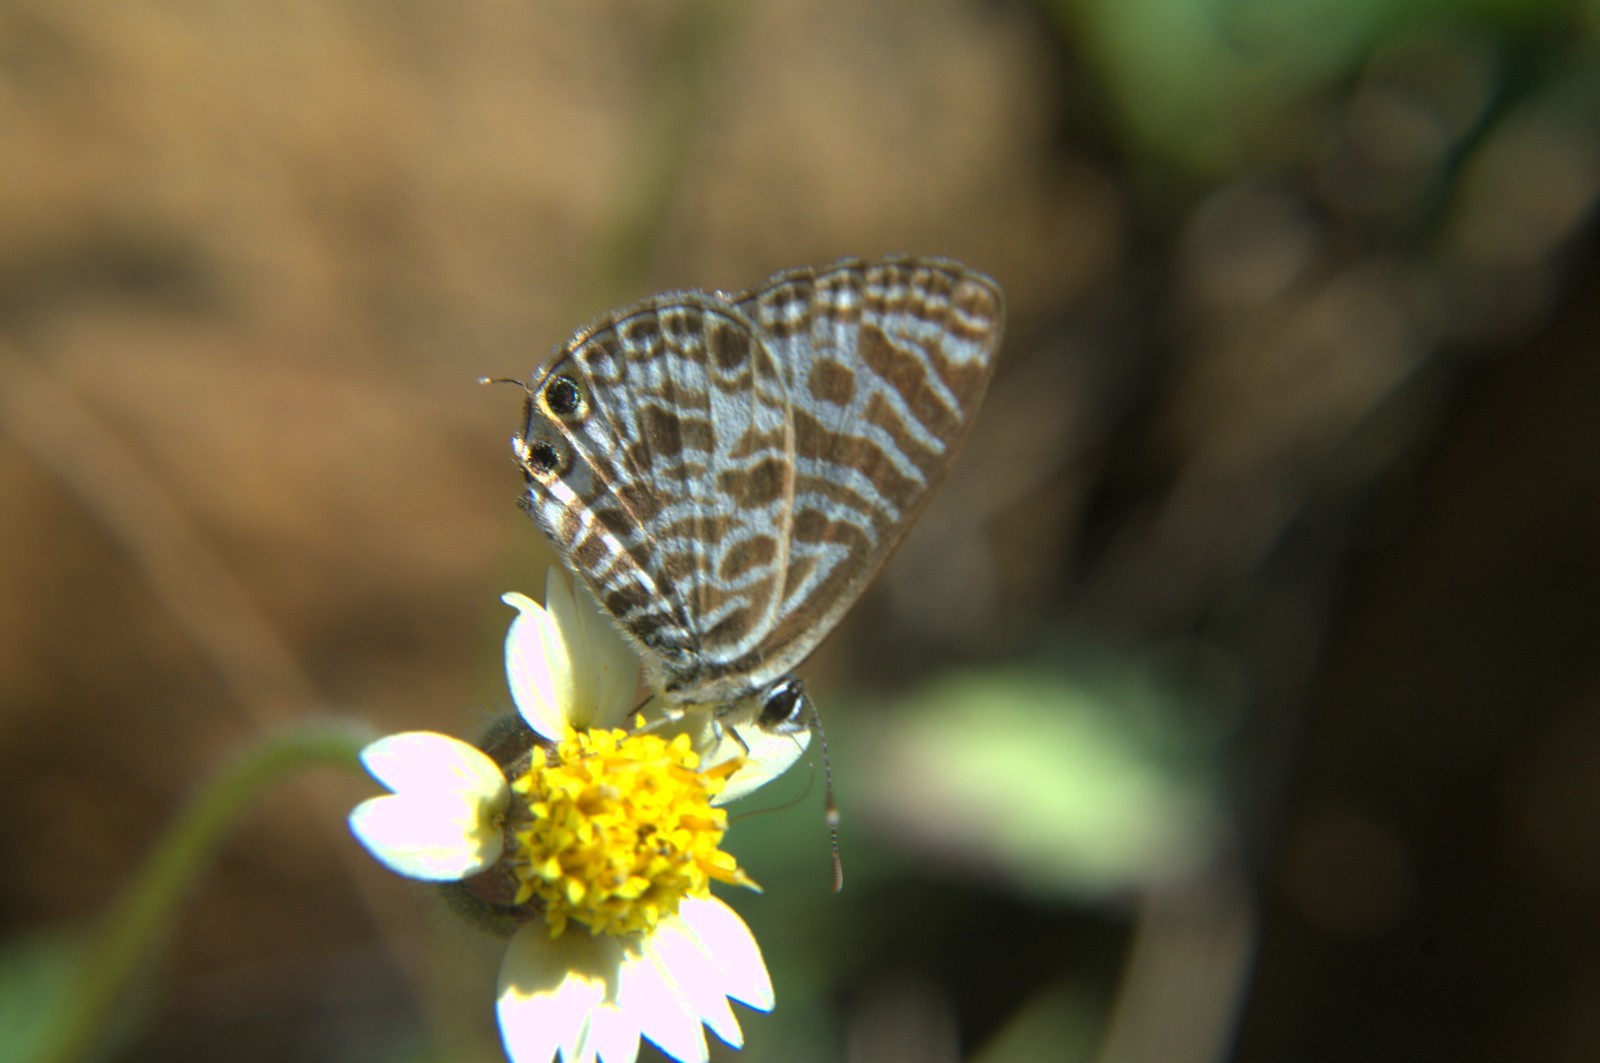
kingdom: Animalia
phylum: Arthropoda
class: Insecta
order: Lepidoptera
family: Lycaenidae
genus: Leptotes
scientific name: Leptotes plinius
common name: Zebra blue
